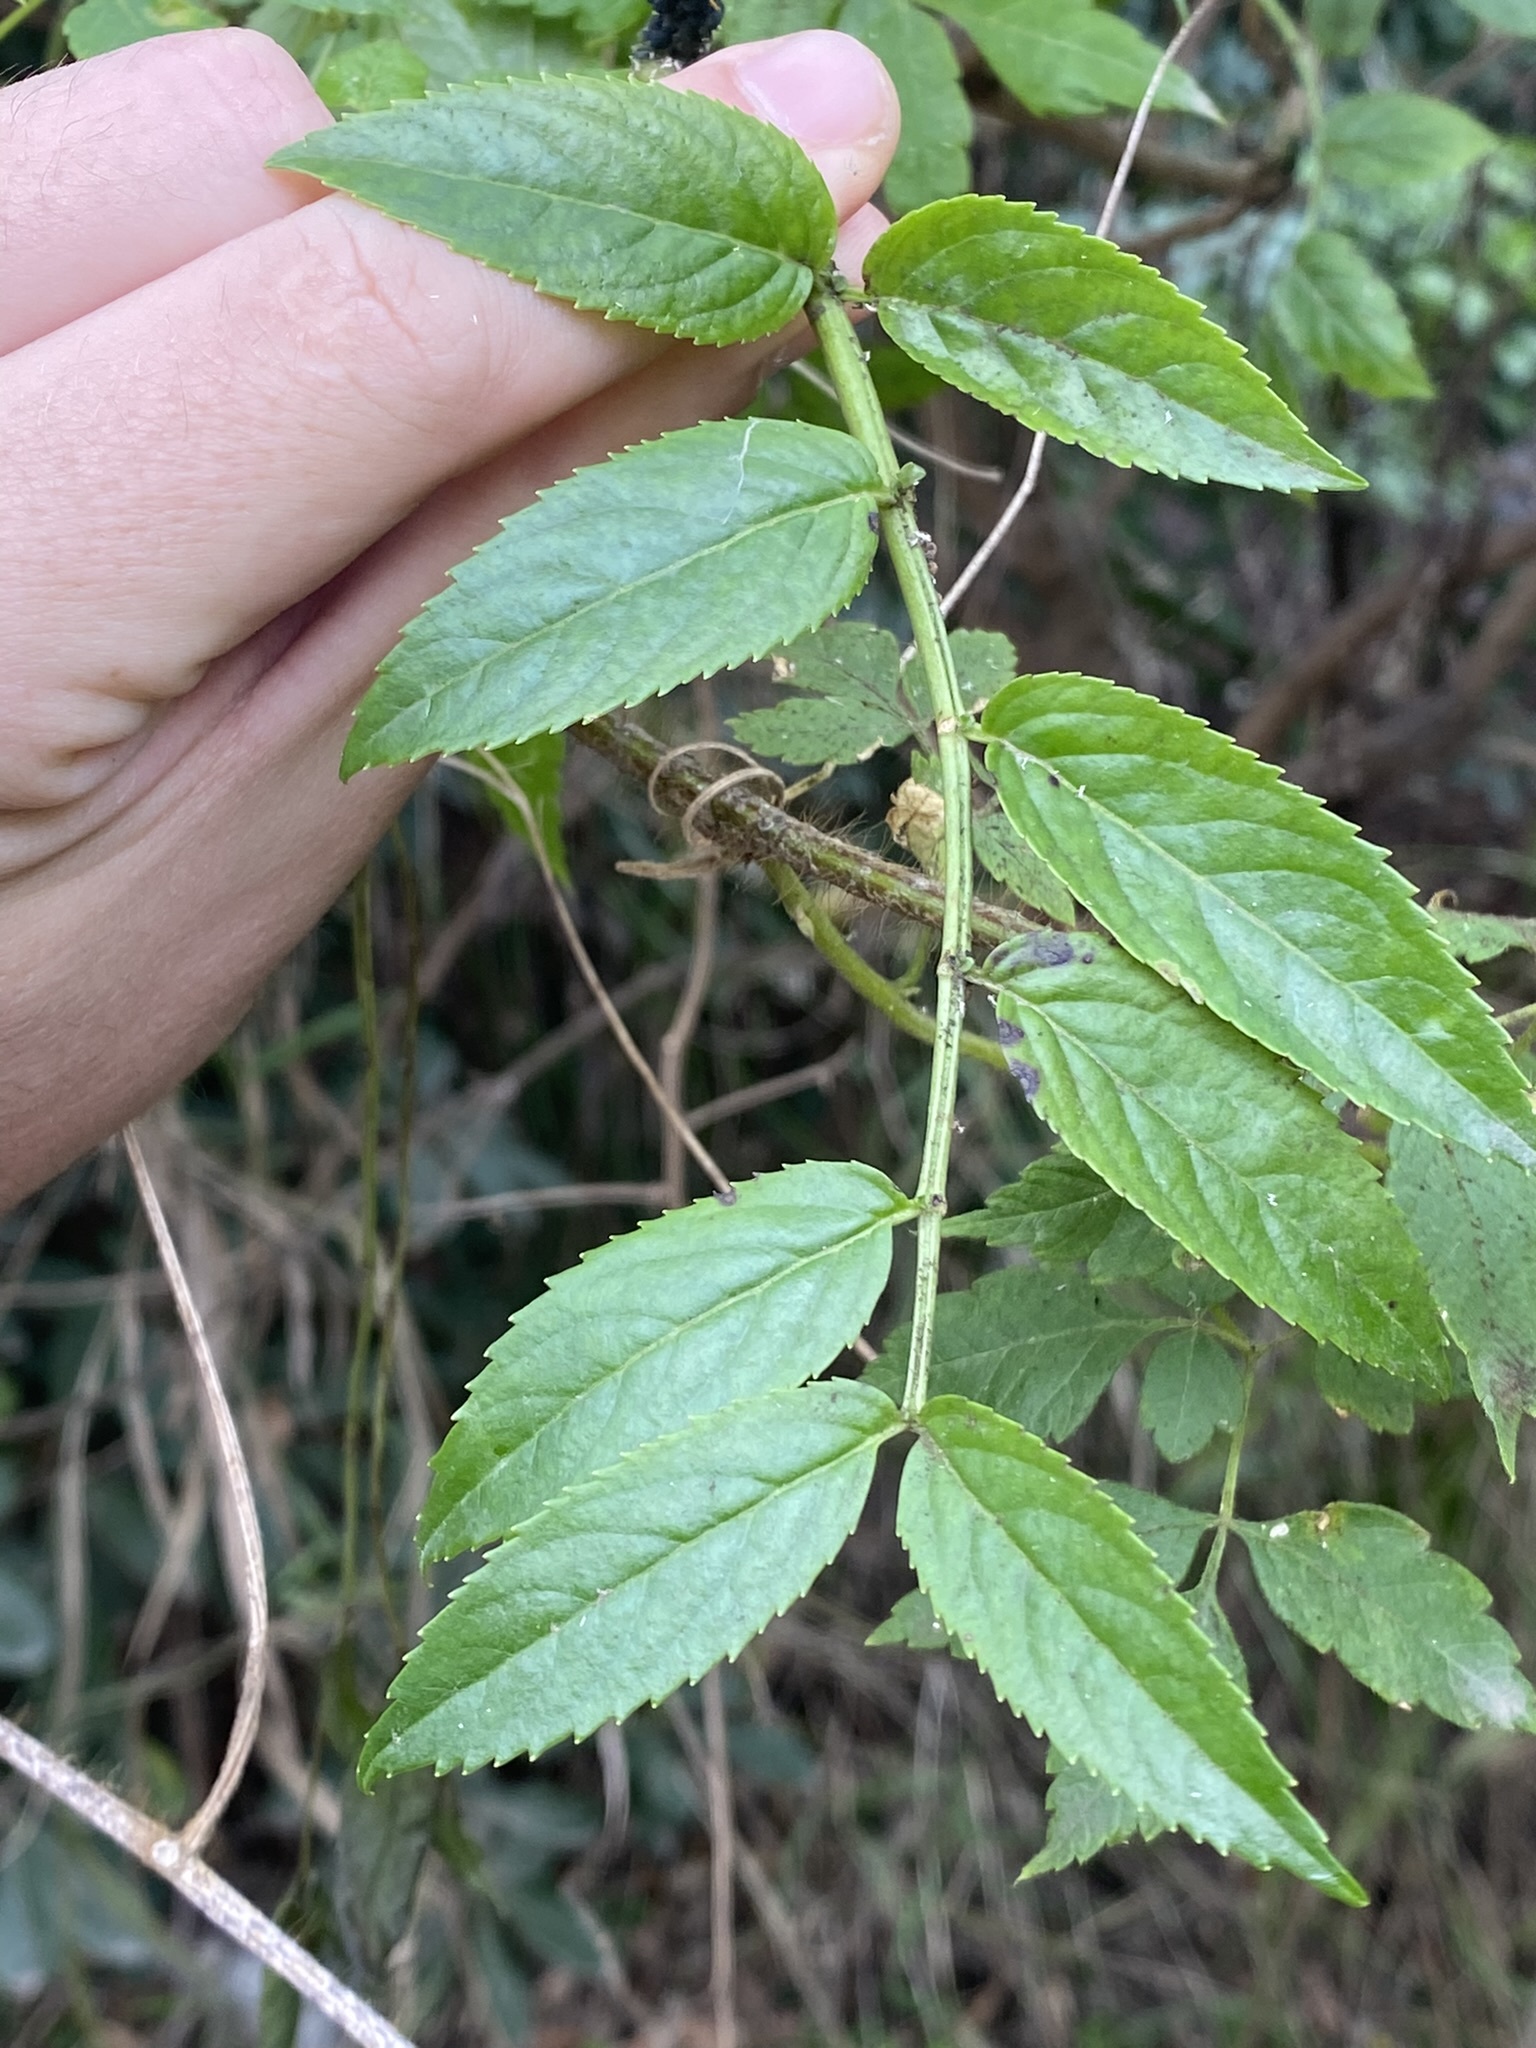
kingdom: Plantae
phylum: Tracheophyta
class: Magnoliopsida
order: Dipsacales
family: Viburnaceae
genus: Sambucus
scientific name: Sambucus australis
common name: Southern elder
